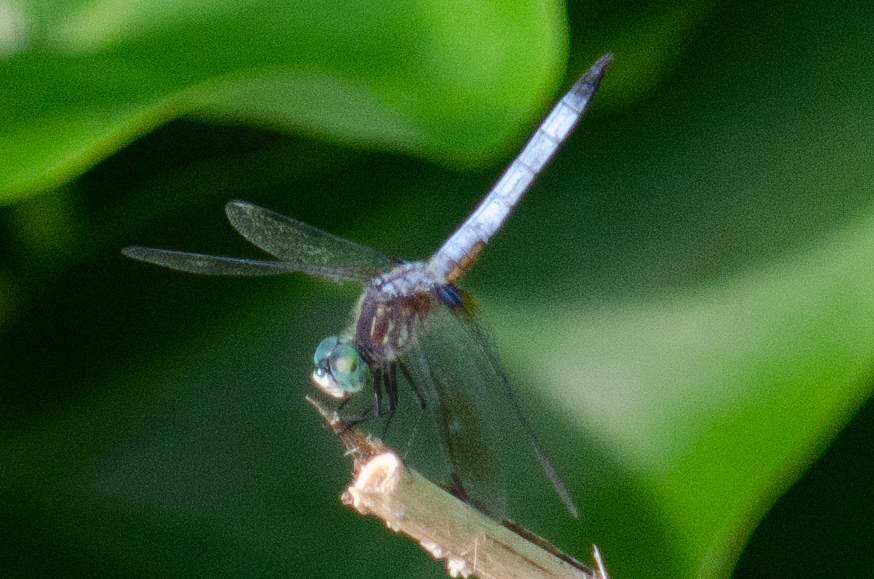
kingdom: Animalia
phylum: Arthropoda
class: Insecta
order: Odonata
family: Libellulidae
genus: Pachydiplax
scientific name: Pachydiplax longipennis
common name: Blue dasher
